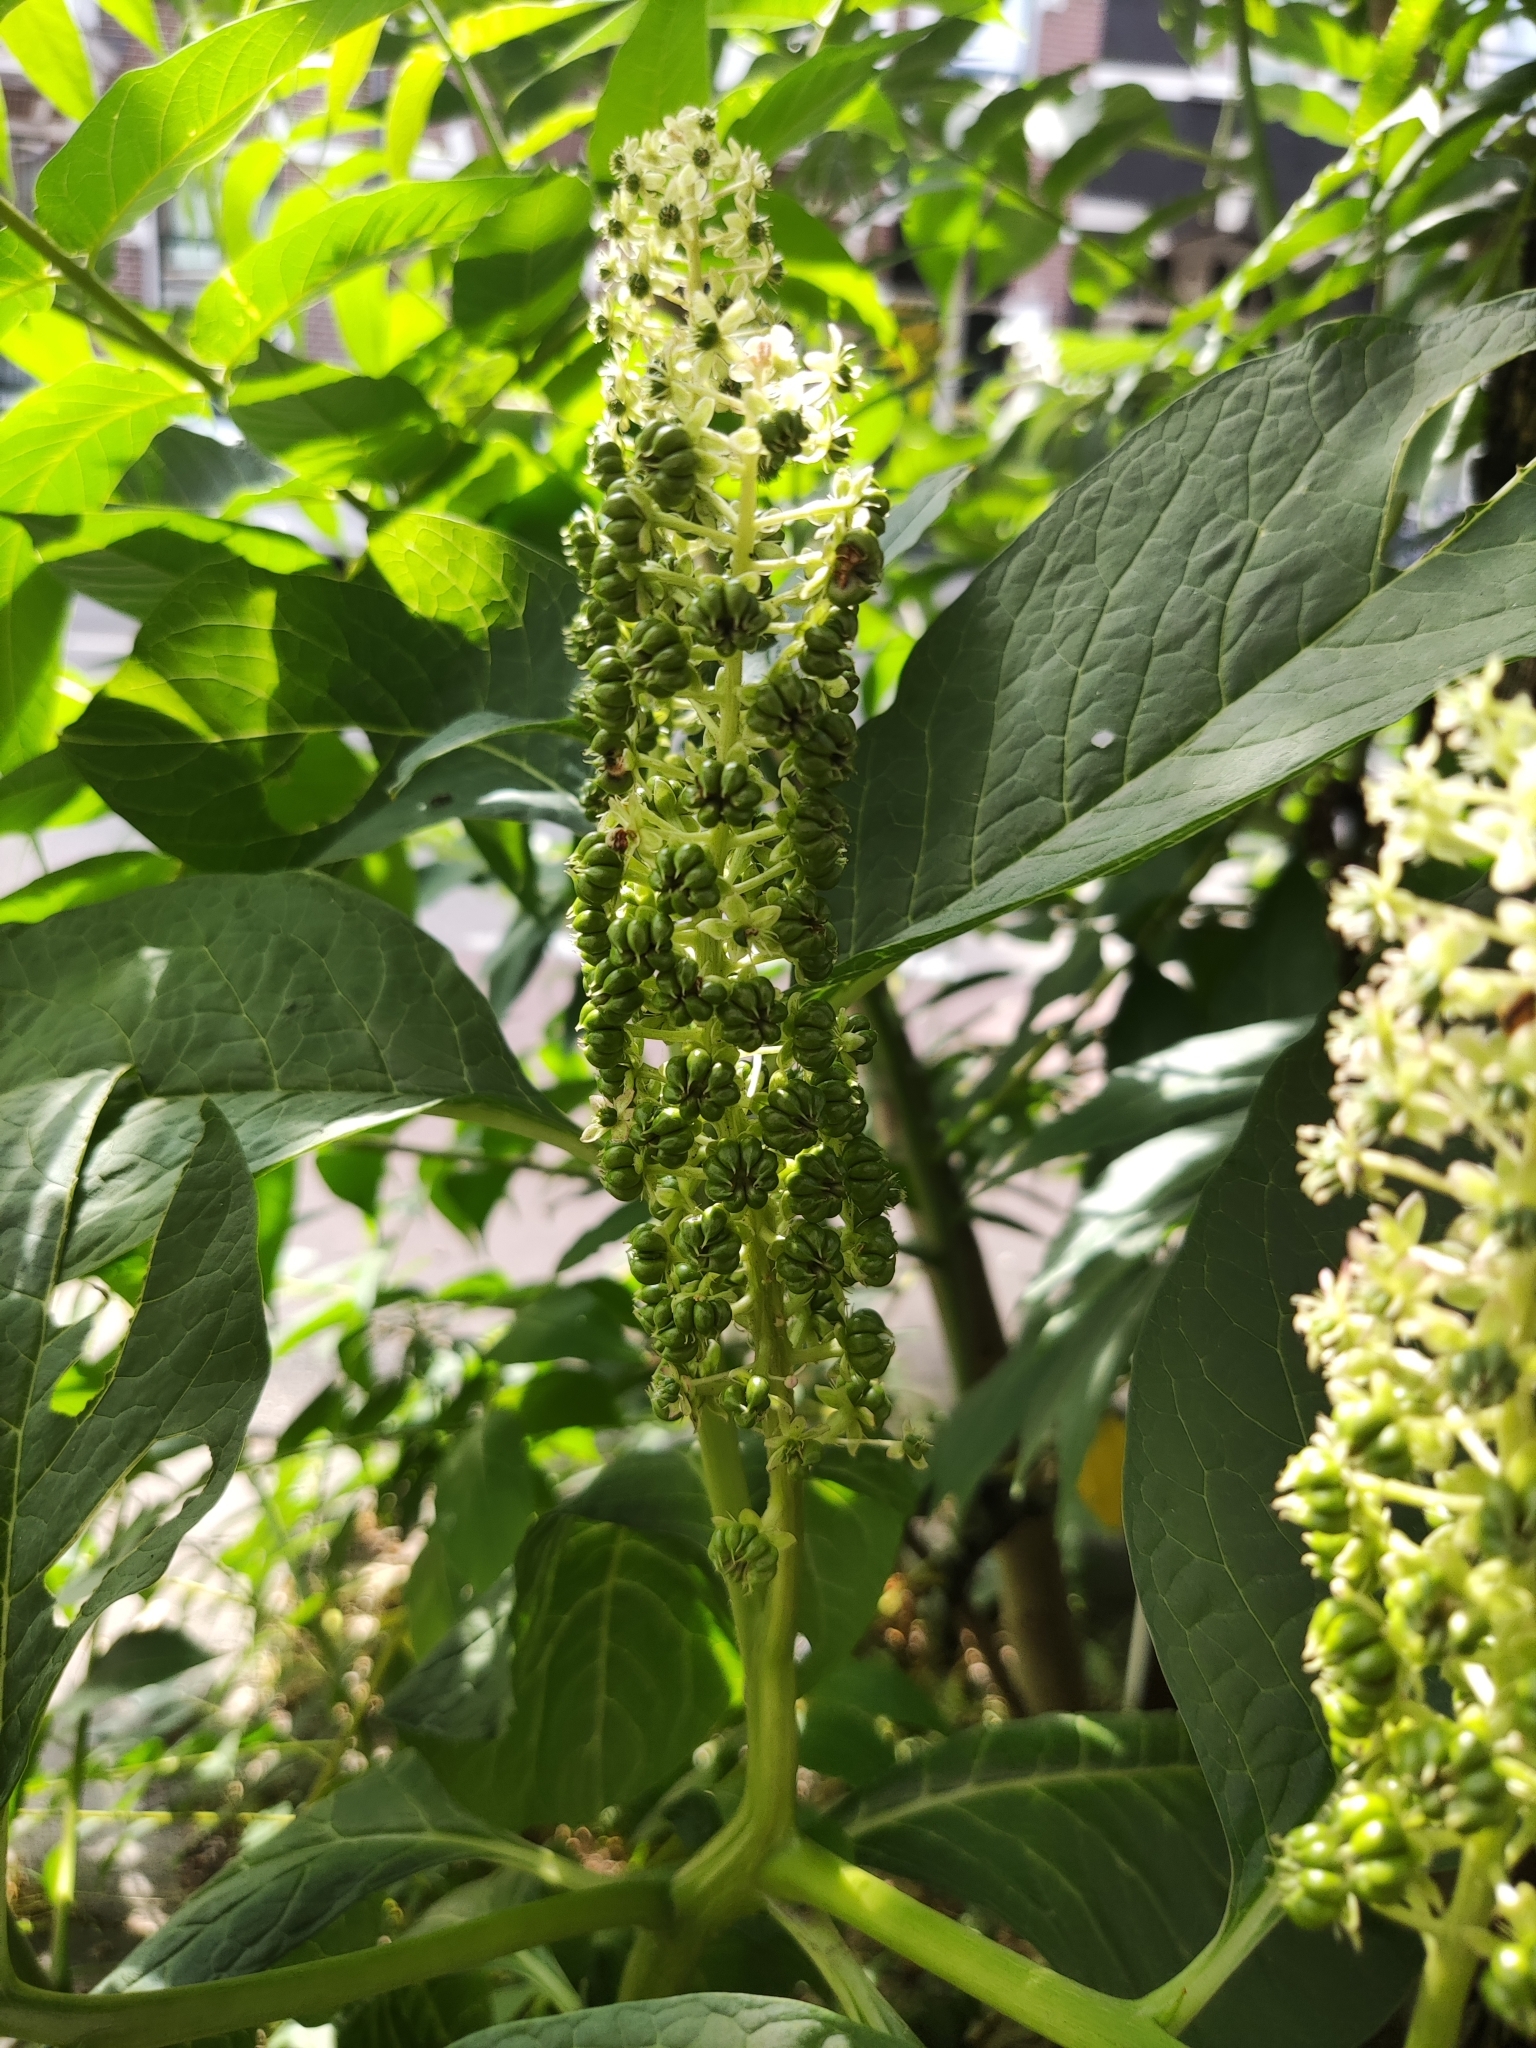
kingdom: Plantae
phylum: Tracheophyta
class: Magnoliopsida
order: Caryophyllales
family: Phytolaccaceae
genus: Phytolacca
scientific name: Phytolacca acinosa
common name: Indian pokeweed
